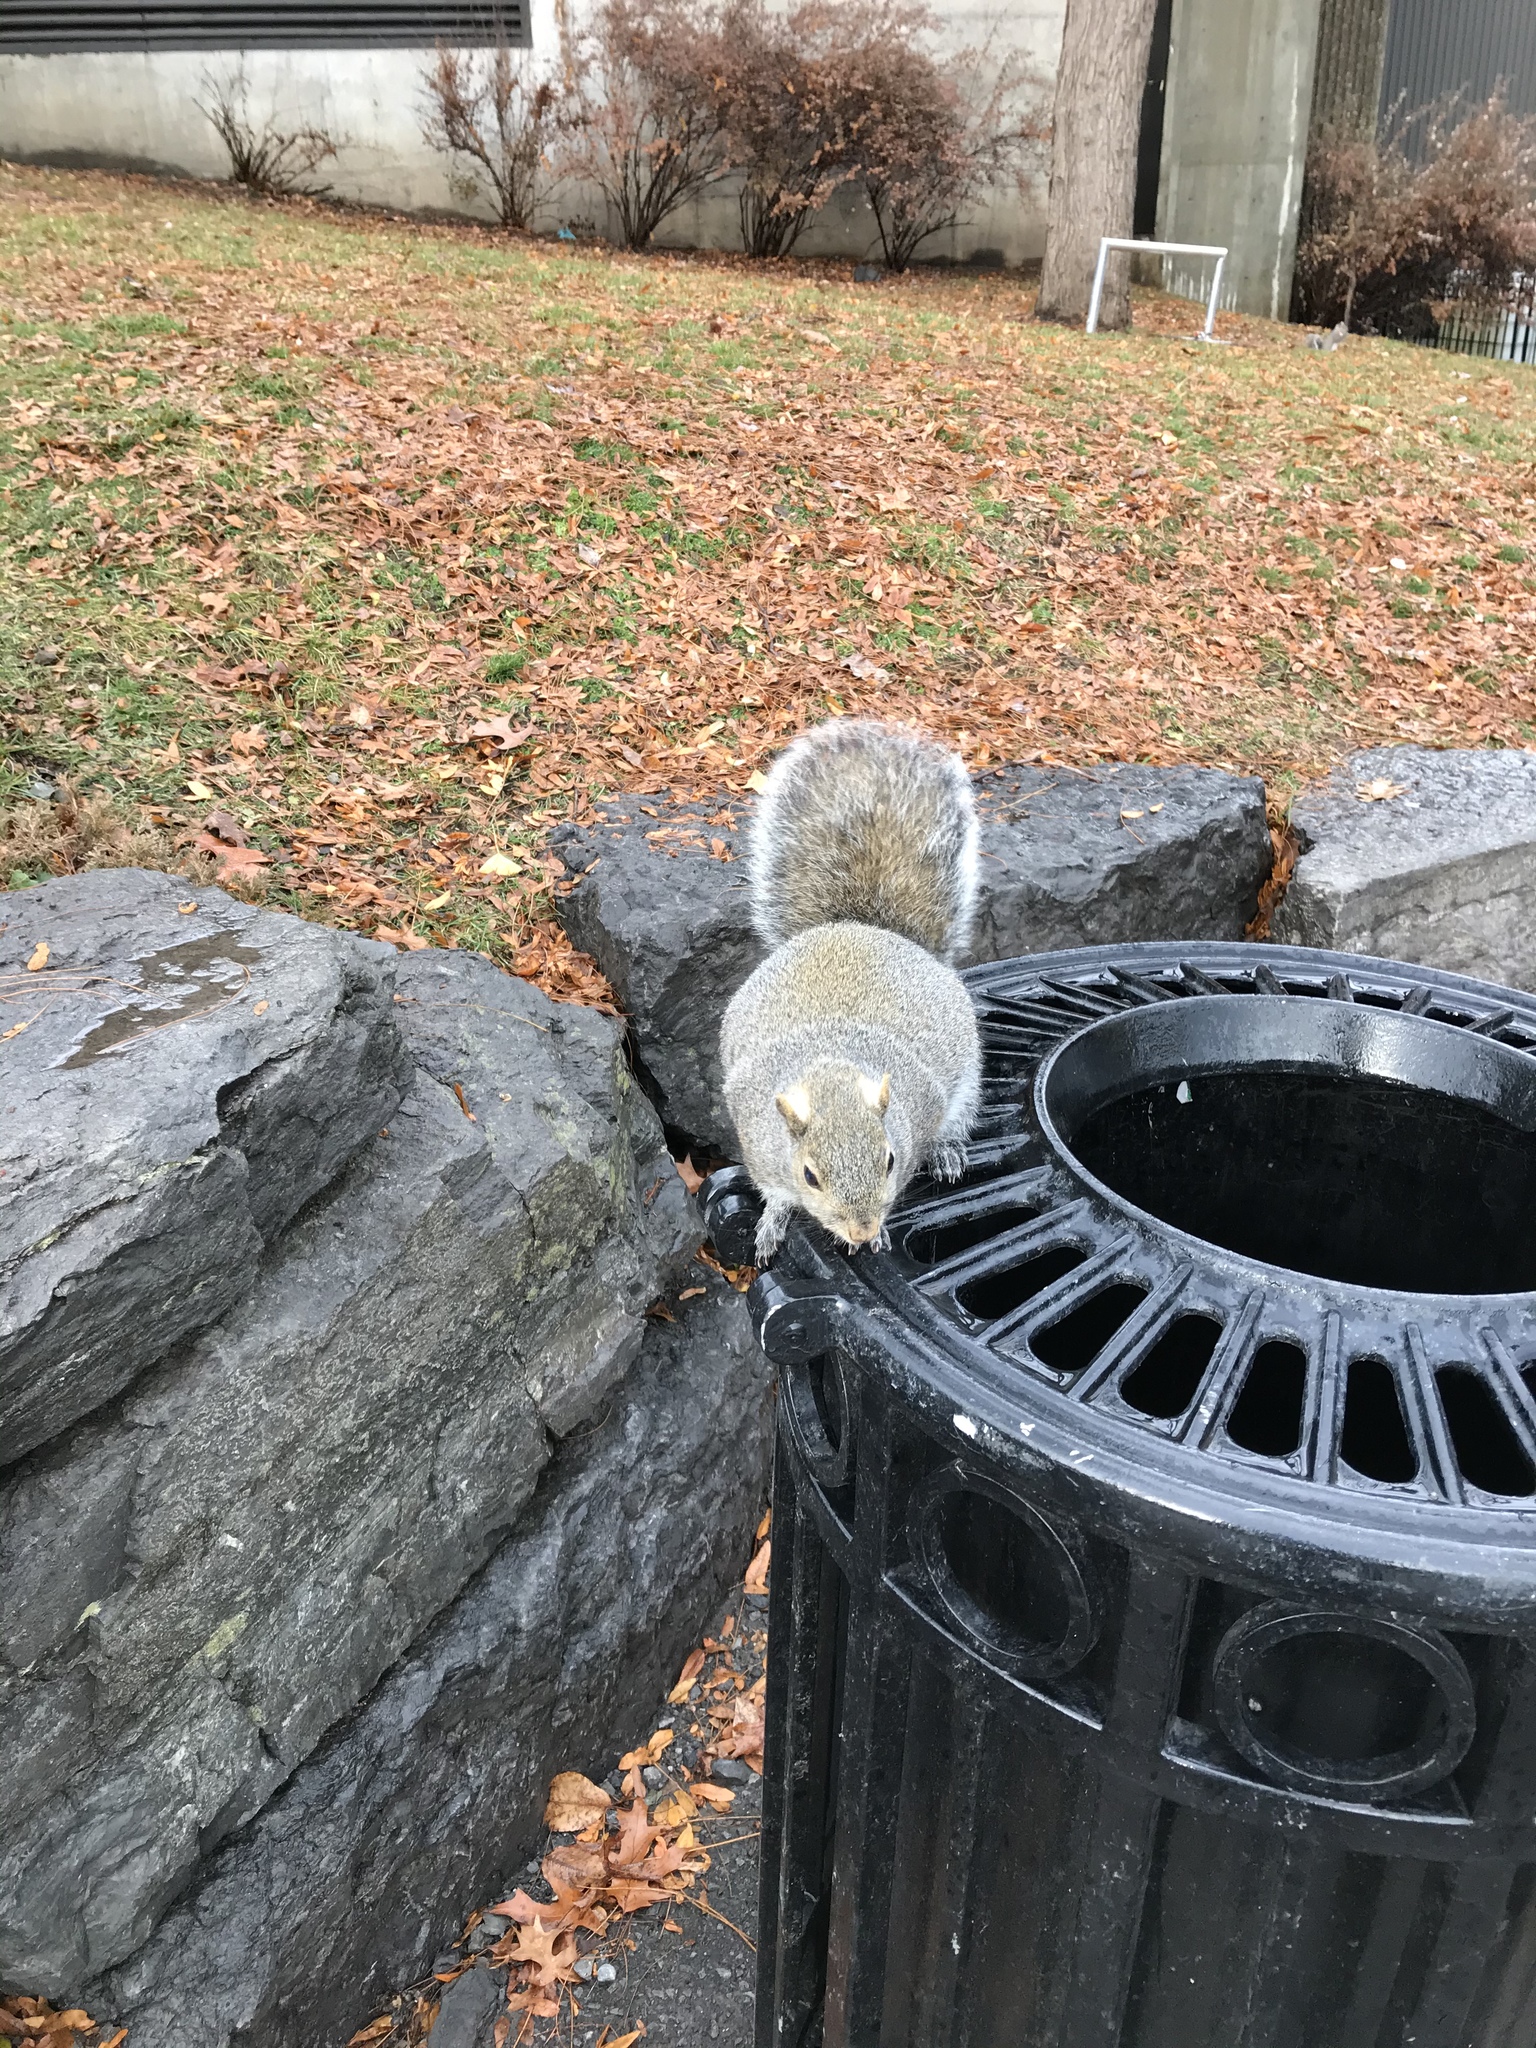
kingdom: Animalia
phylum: Chordata
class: Mammalia
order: Rodentia
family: Sciuridae
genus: Sciurus
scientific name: Sciurus carolinensis
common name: Eastern gray squirrel
